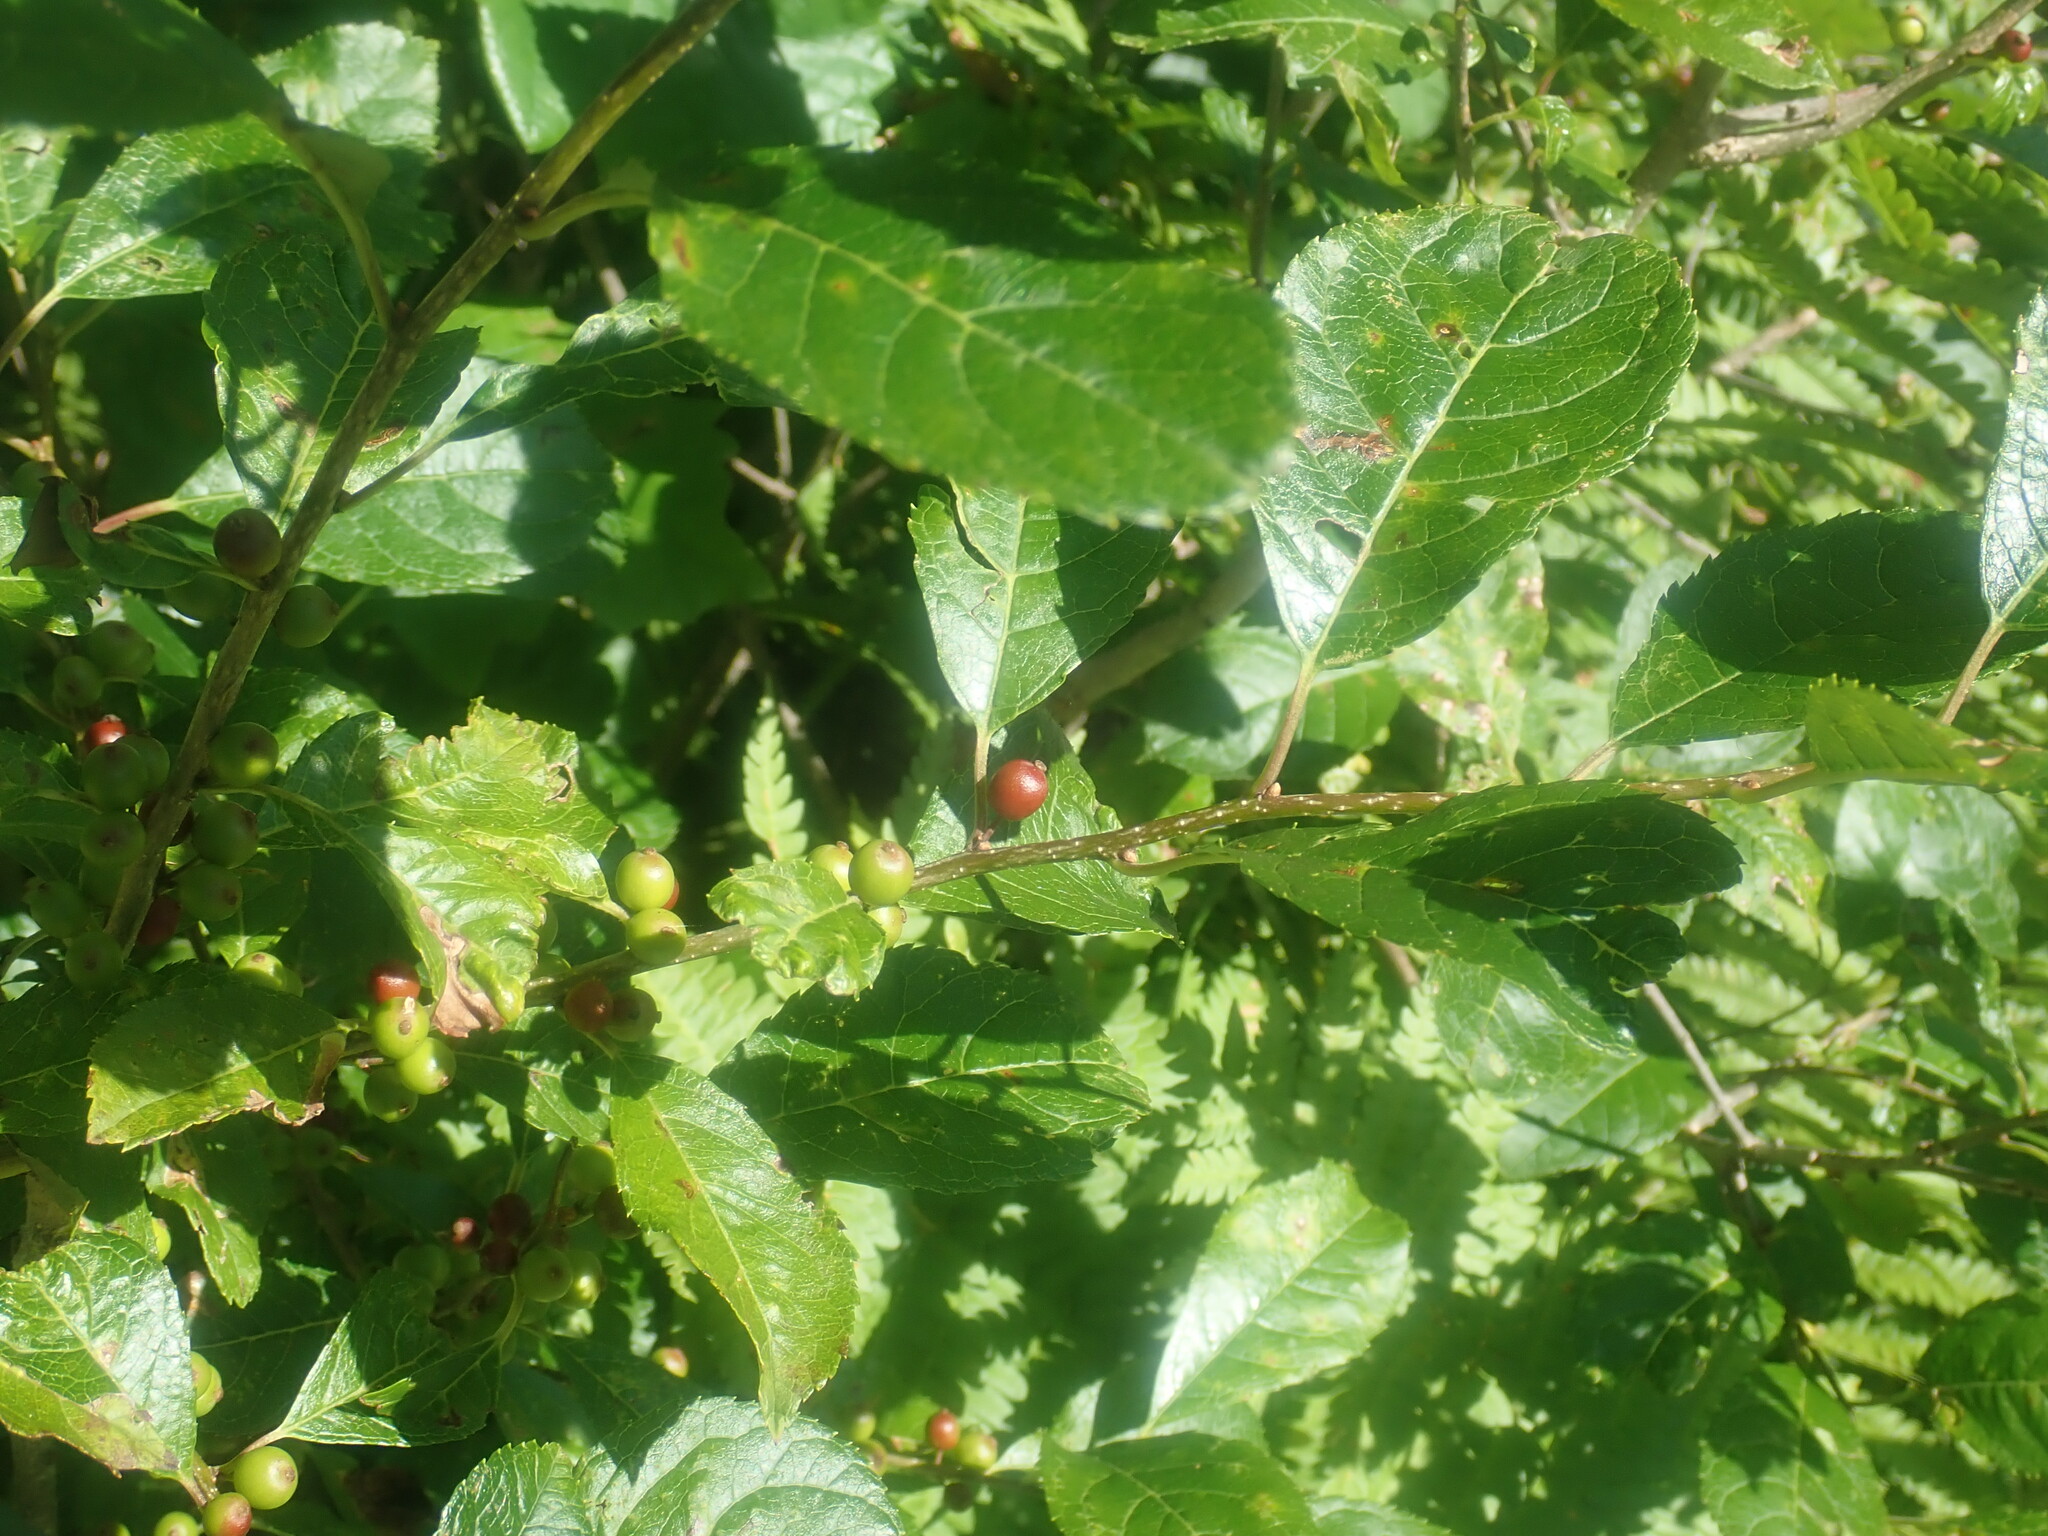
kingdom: Plantae
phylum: Tracheophyta
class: Magnoliopsida
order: Aquifoliales
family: Aquifoliaceae
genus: Ilex
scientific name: Ilex verticillata
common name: Virginia winterberry
